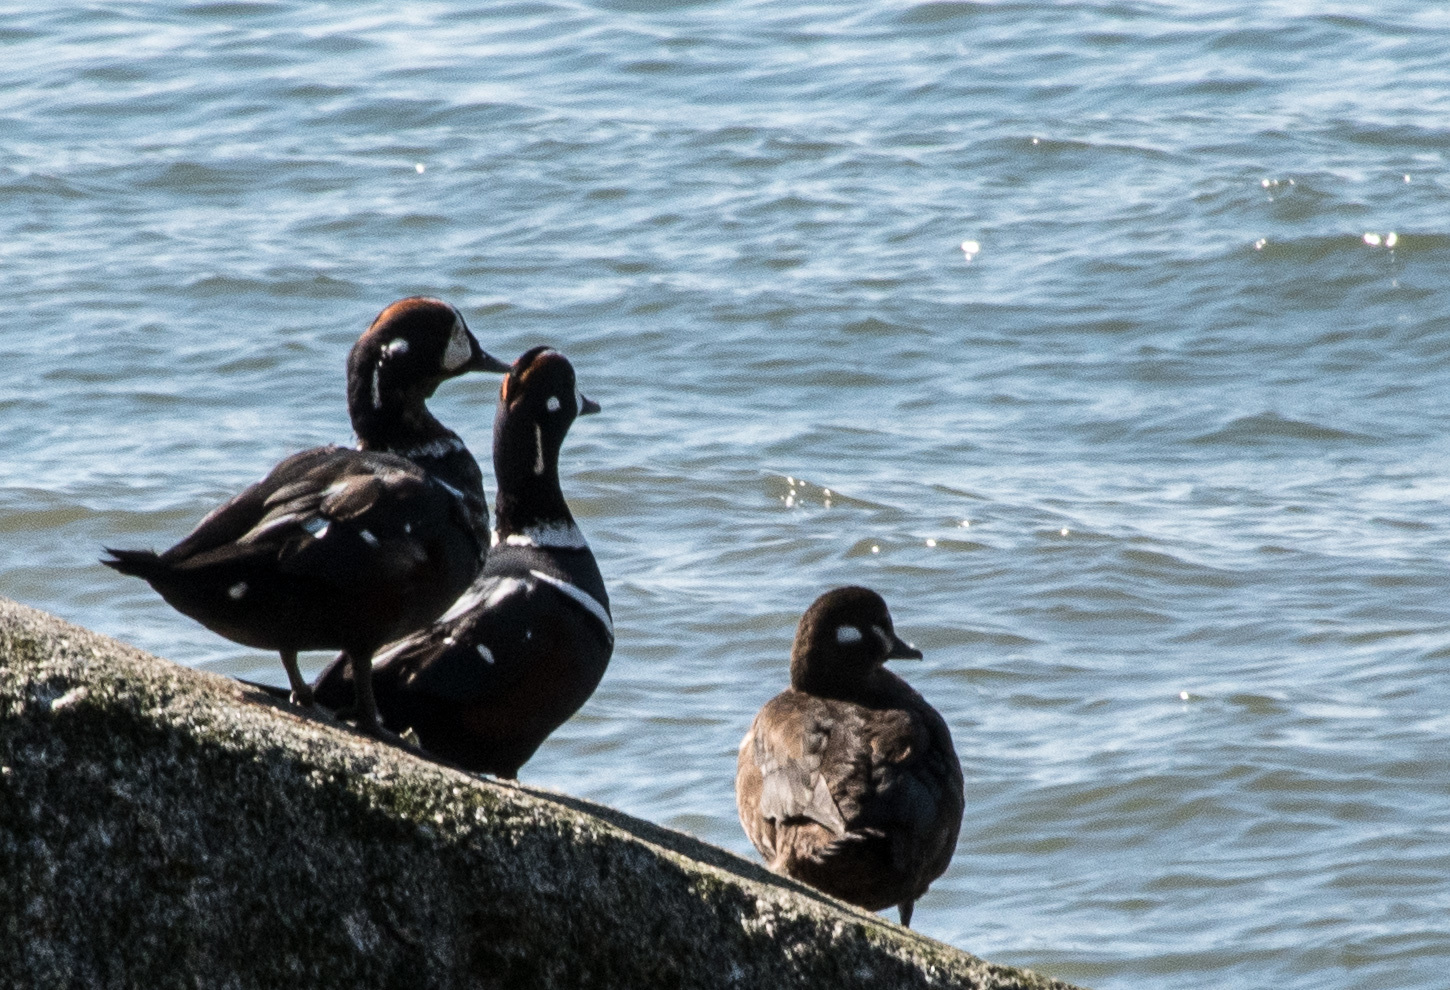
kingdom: Animalia
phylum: Chordata
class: Aves
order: Anseriformes
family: Anatidae
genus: Histrionicus
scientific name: Histrionicus histrionicus
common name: Harlequin duck
